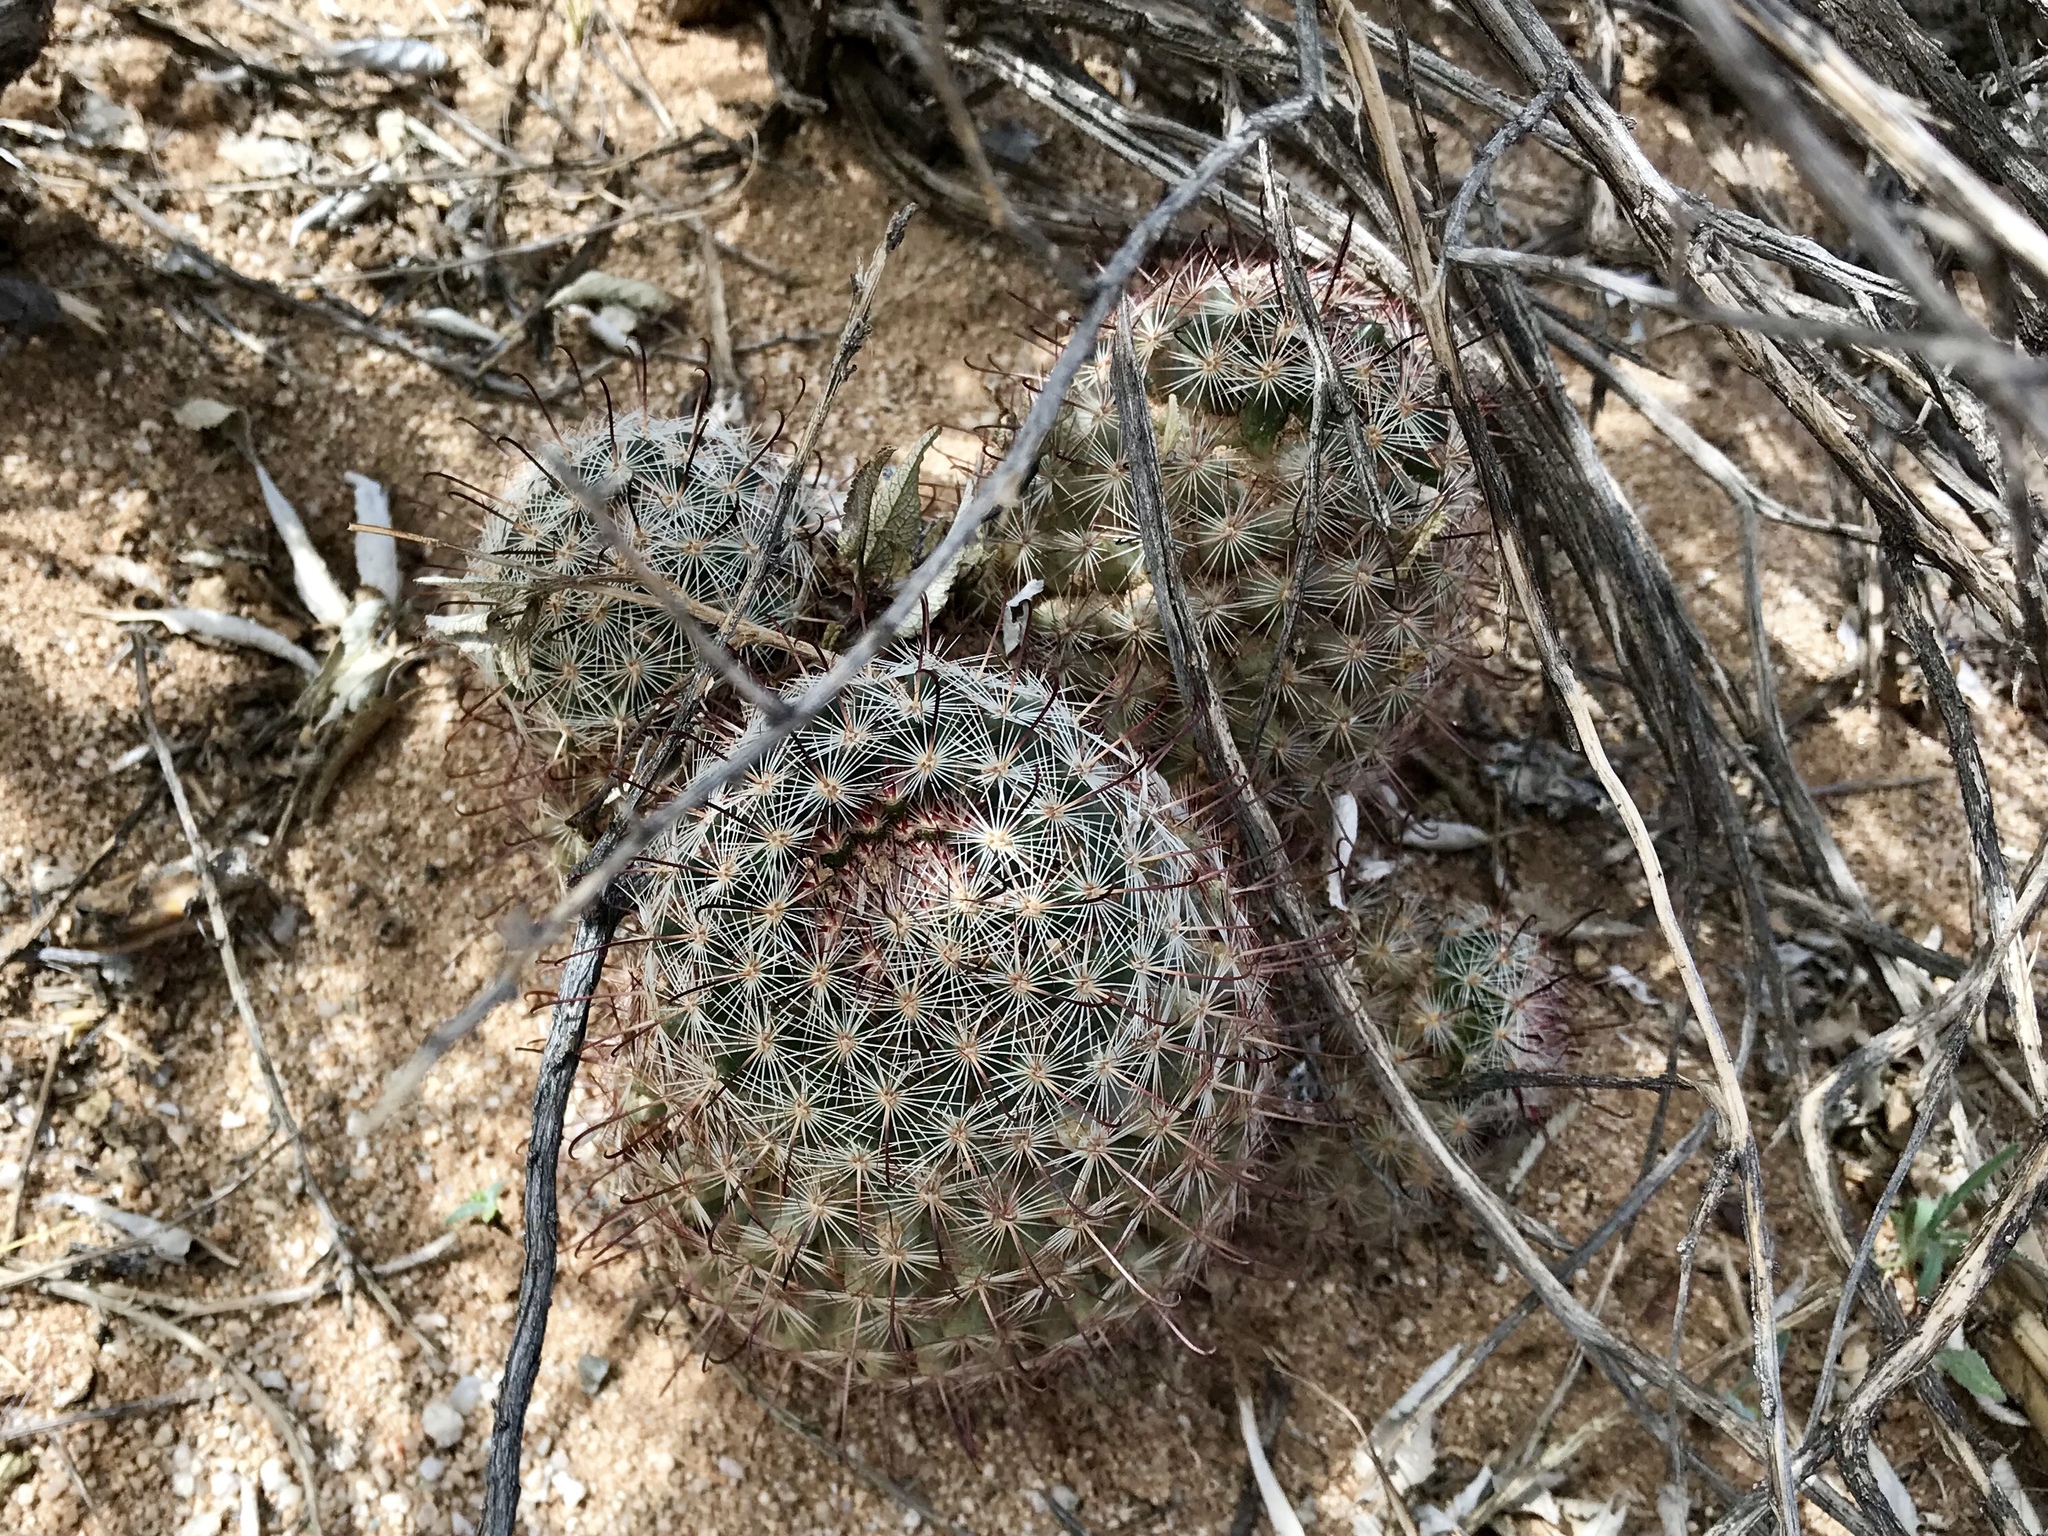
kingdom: Plantae
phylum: Tracheophyta
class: Magnoliopsida
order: Caryophyllales
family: Cactaceae
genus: Cochemiea
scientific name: Cochemiea grahamii
